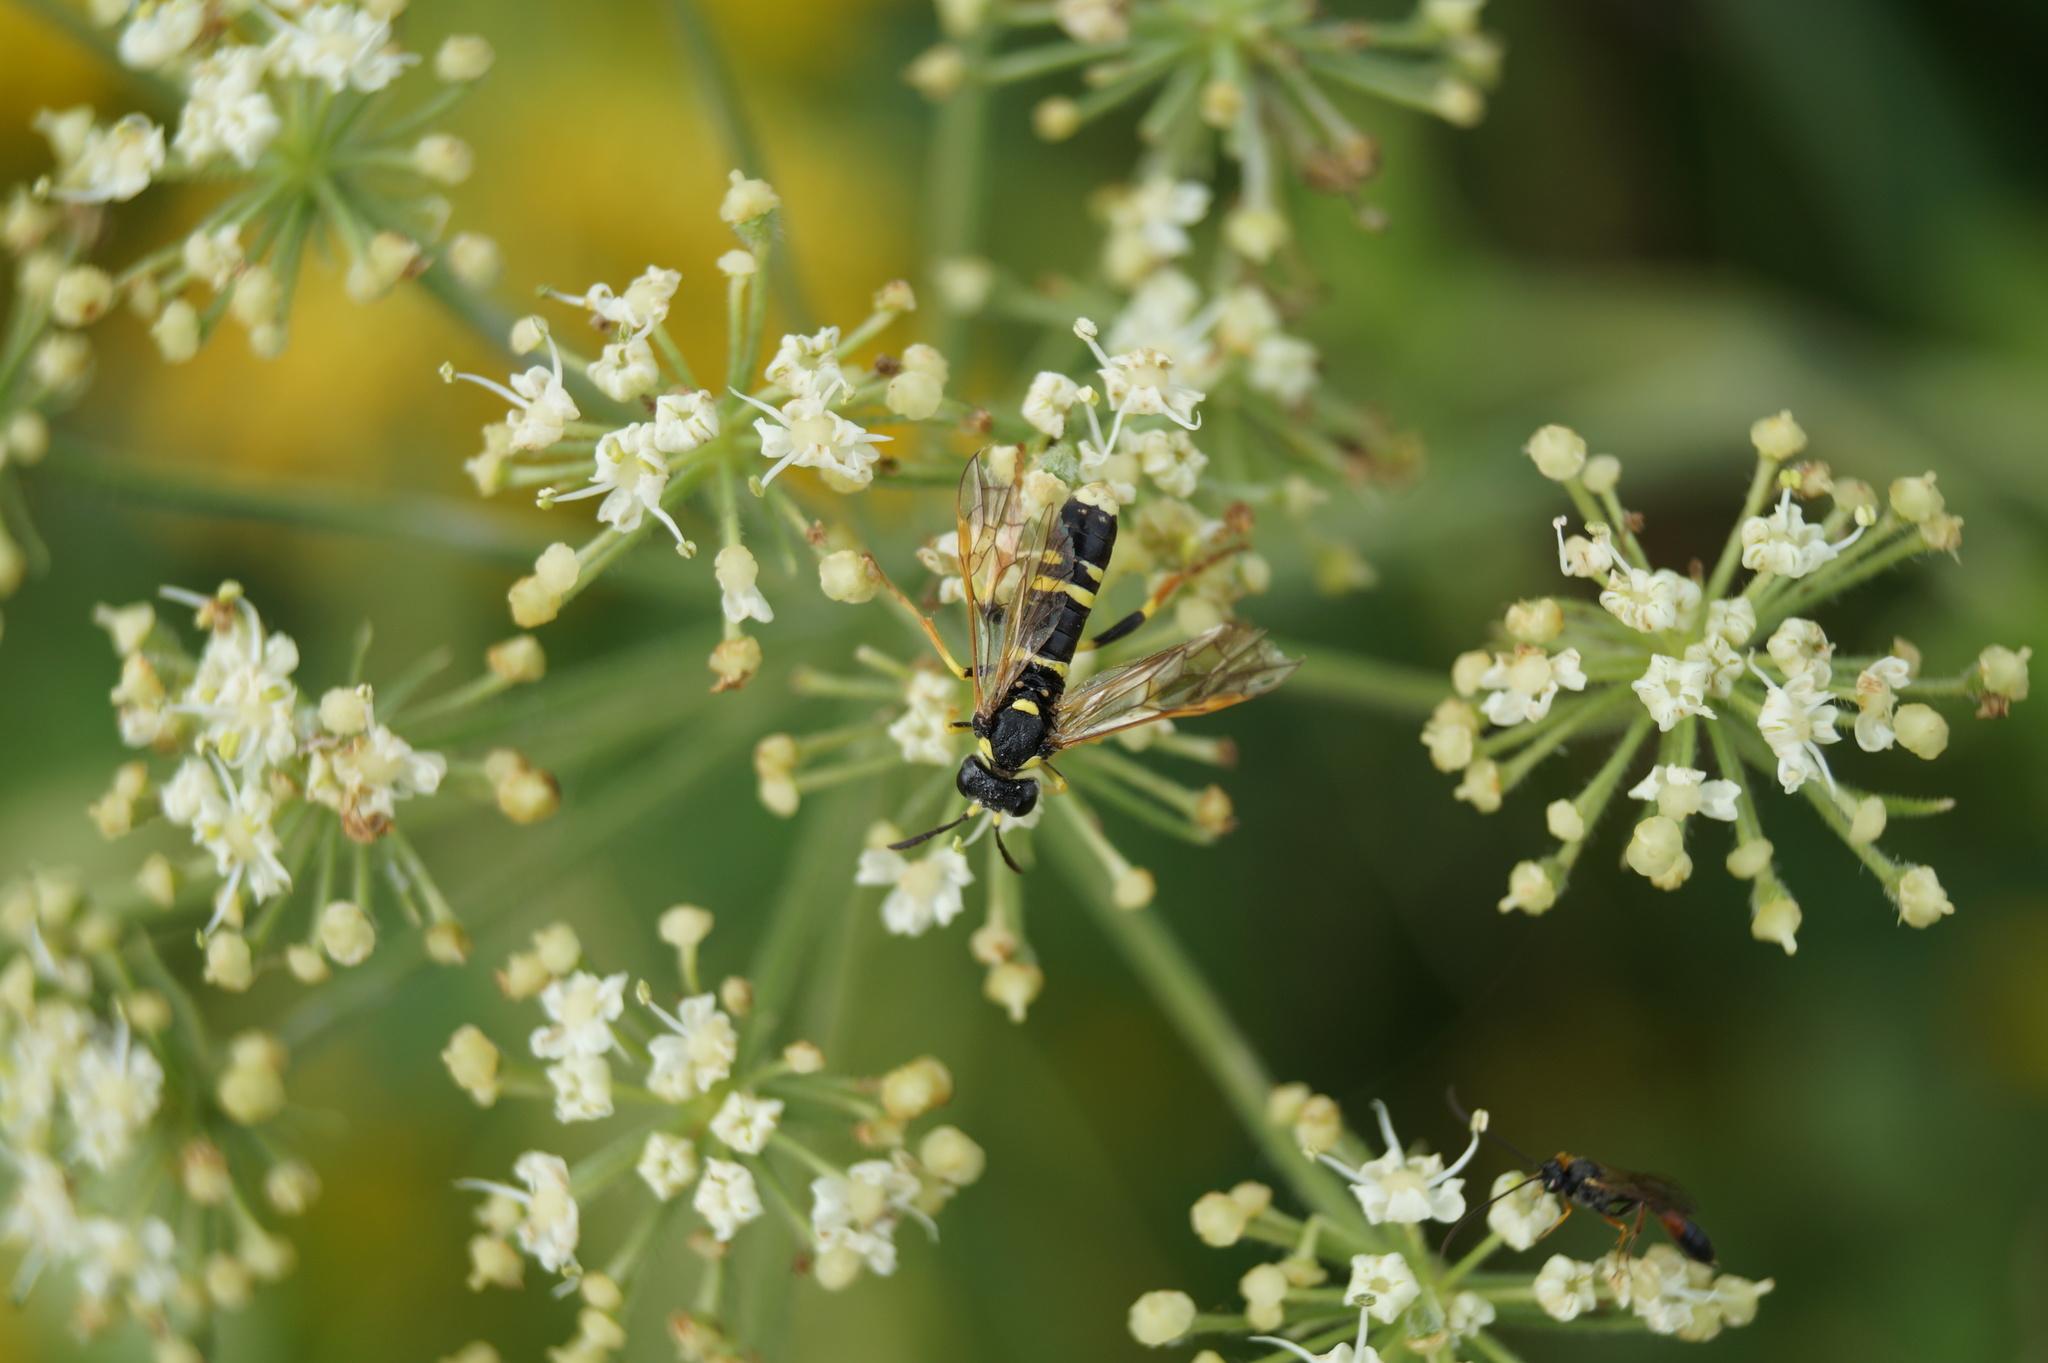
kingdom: Animalia
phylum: Arthropoda
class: Insecta
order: Hymenoptera
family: Tenthredinidae
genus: Tenthredo
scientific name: Tenthredo omissa
